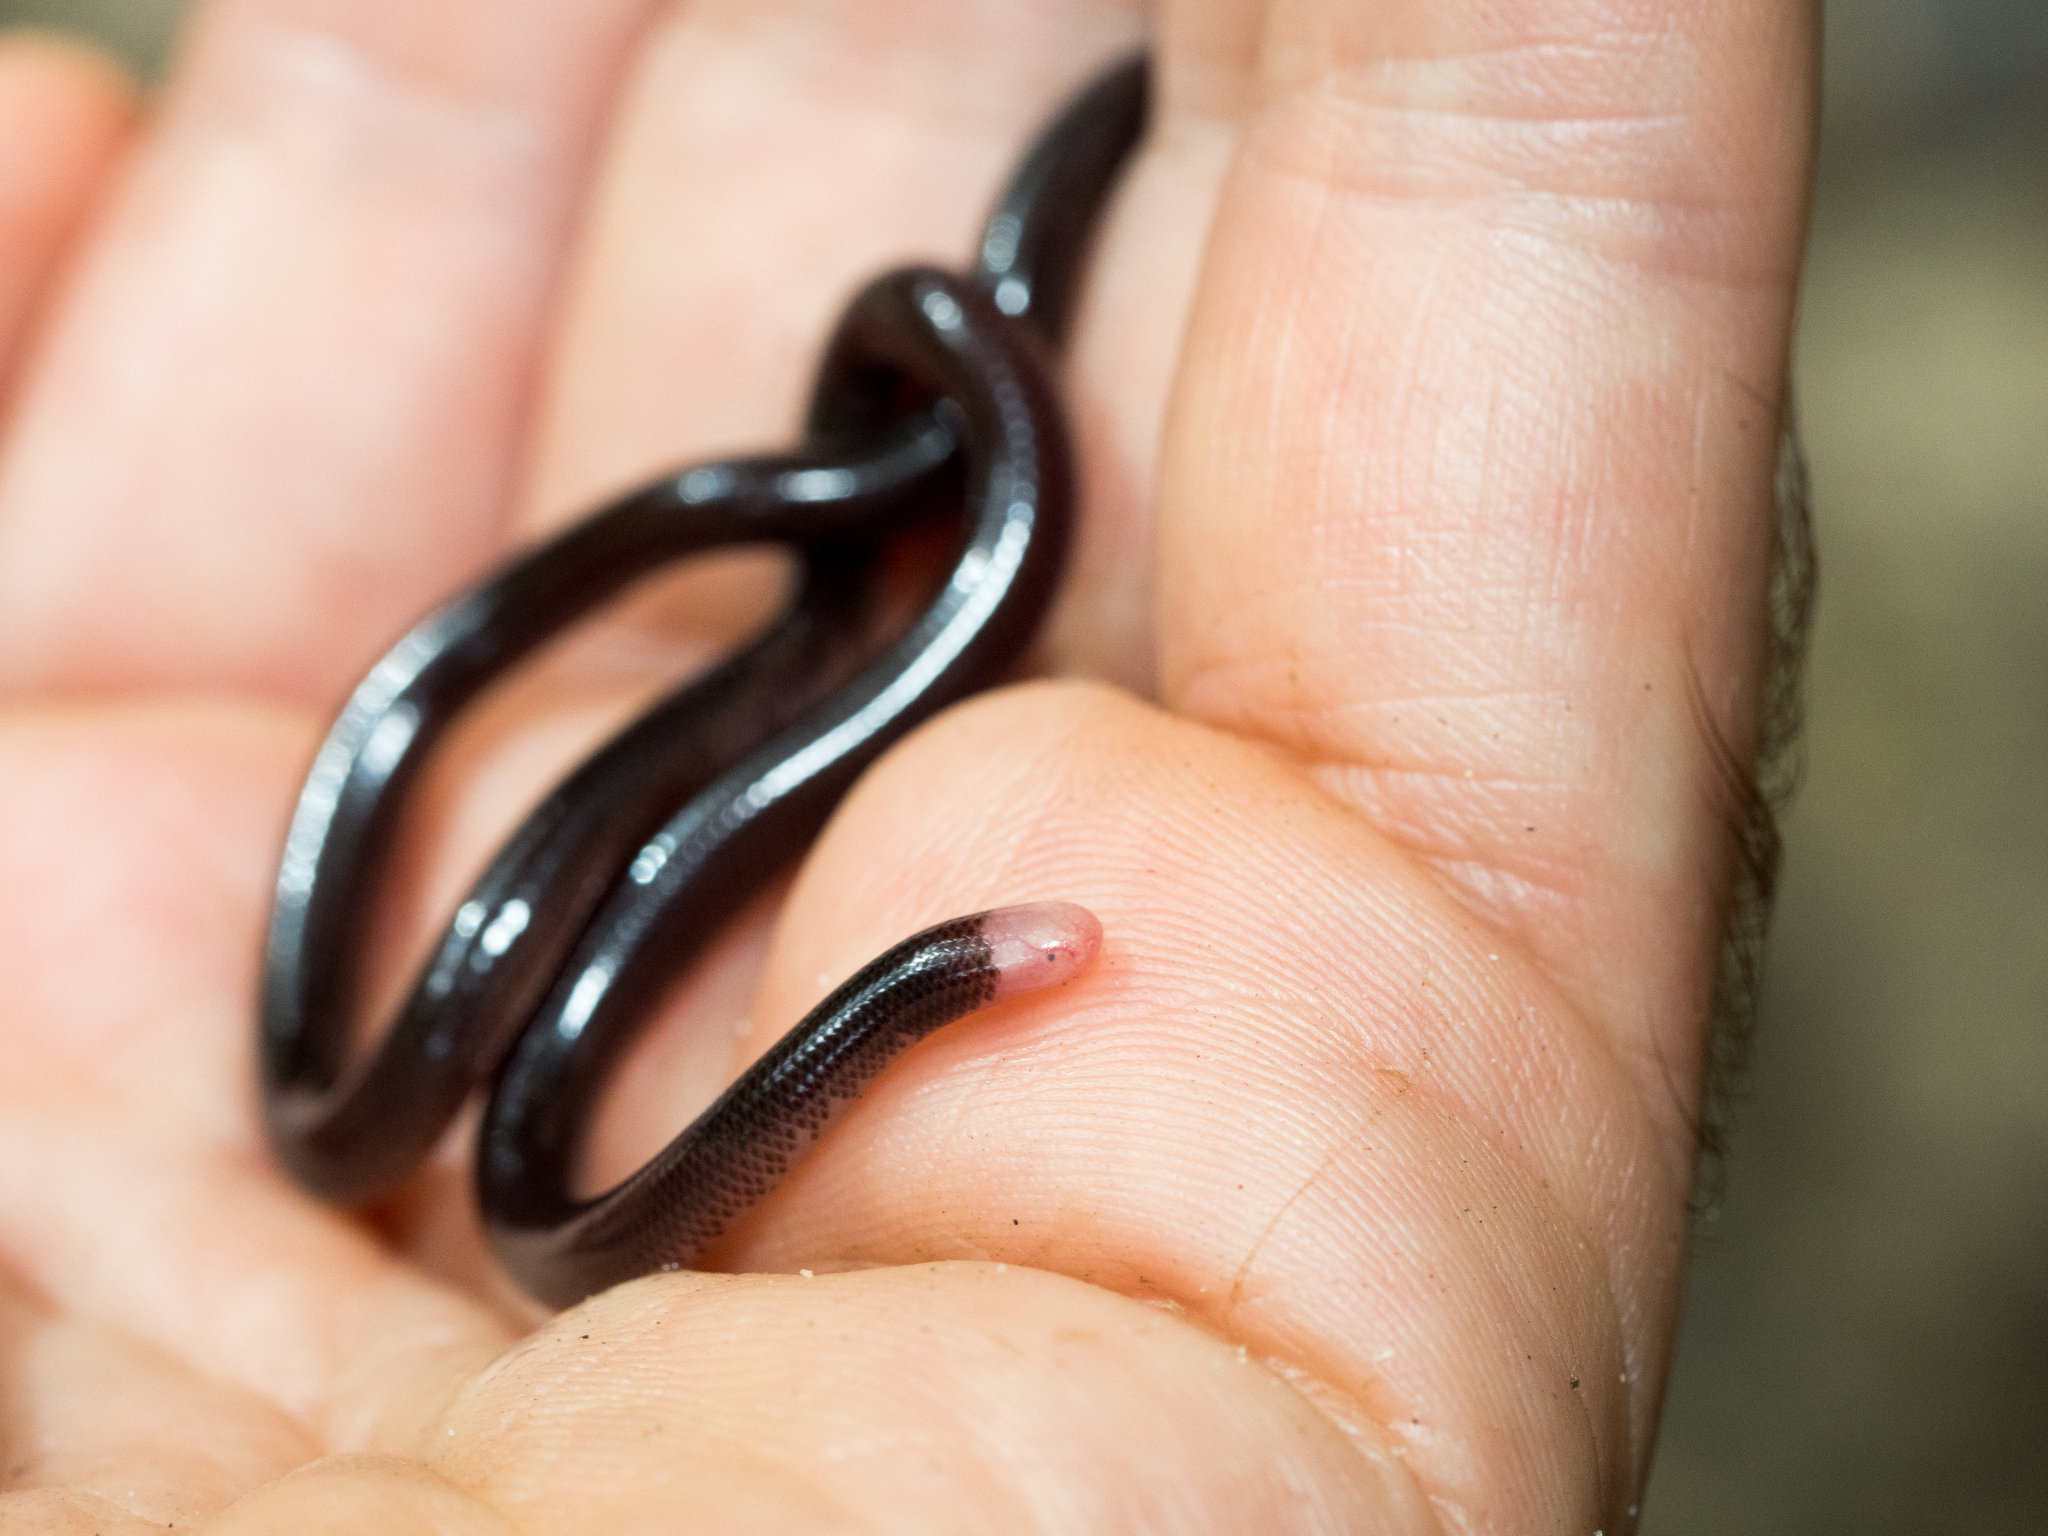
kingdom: Animalia
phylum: Chordata
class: Squamata
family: Anomalepididae
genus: Typhlophis
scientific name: Typhlophis squamosus
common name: Trinidad blind snake
